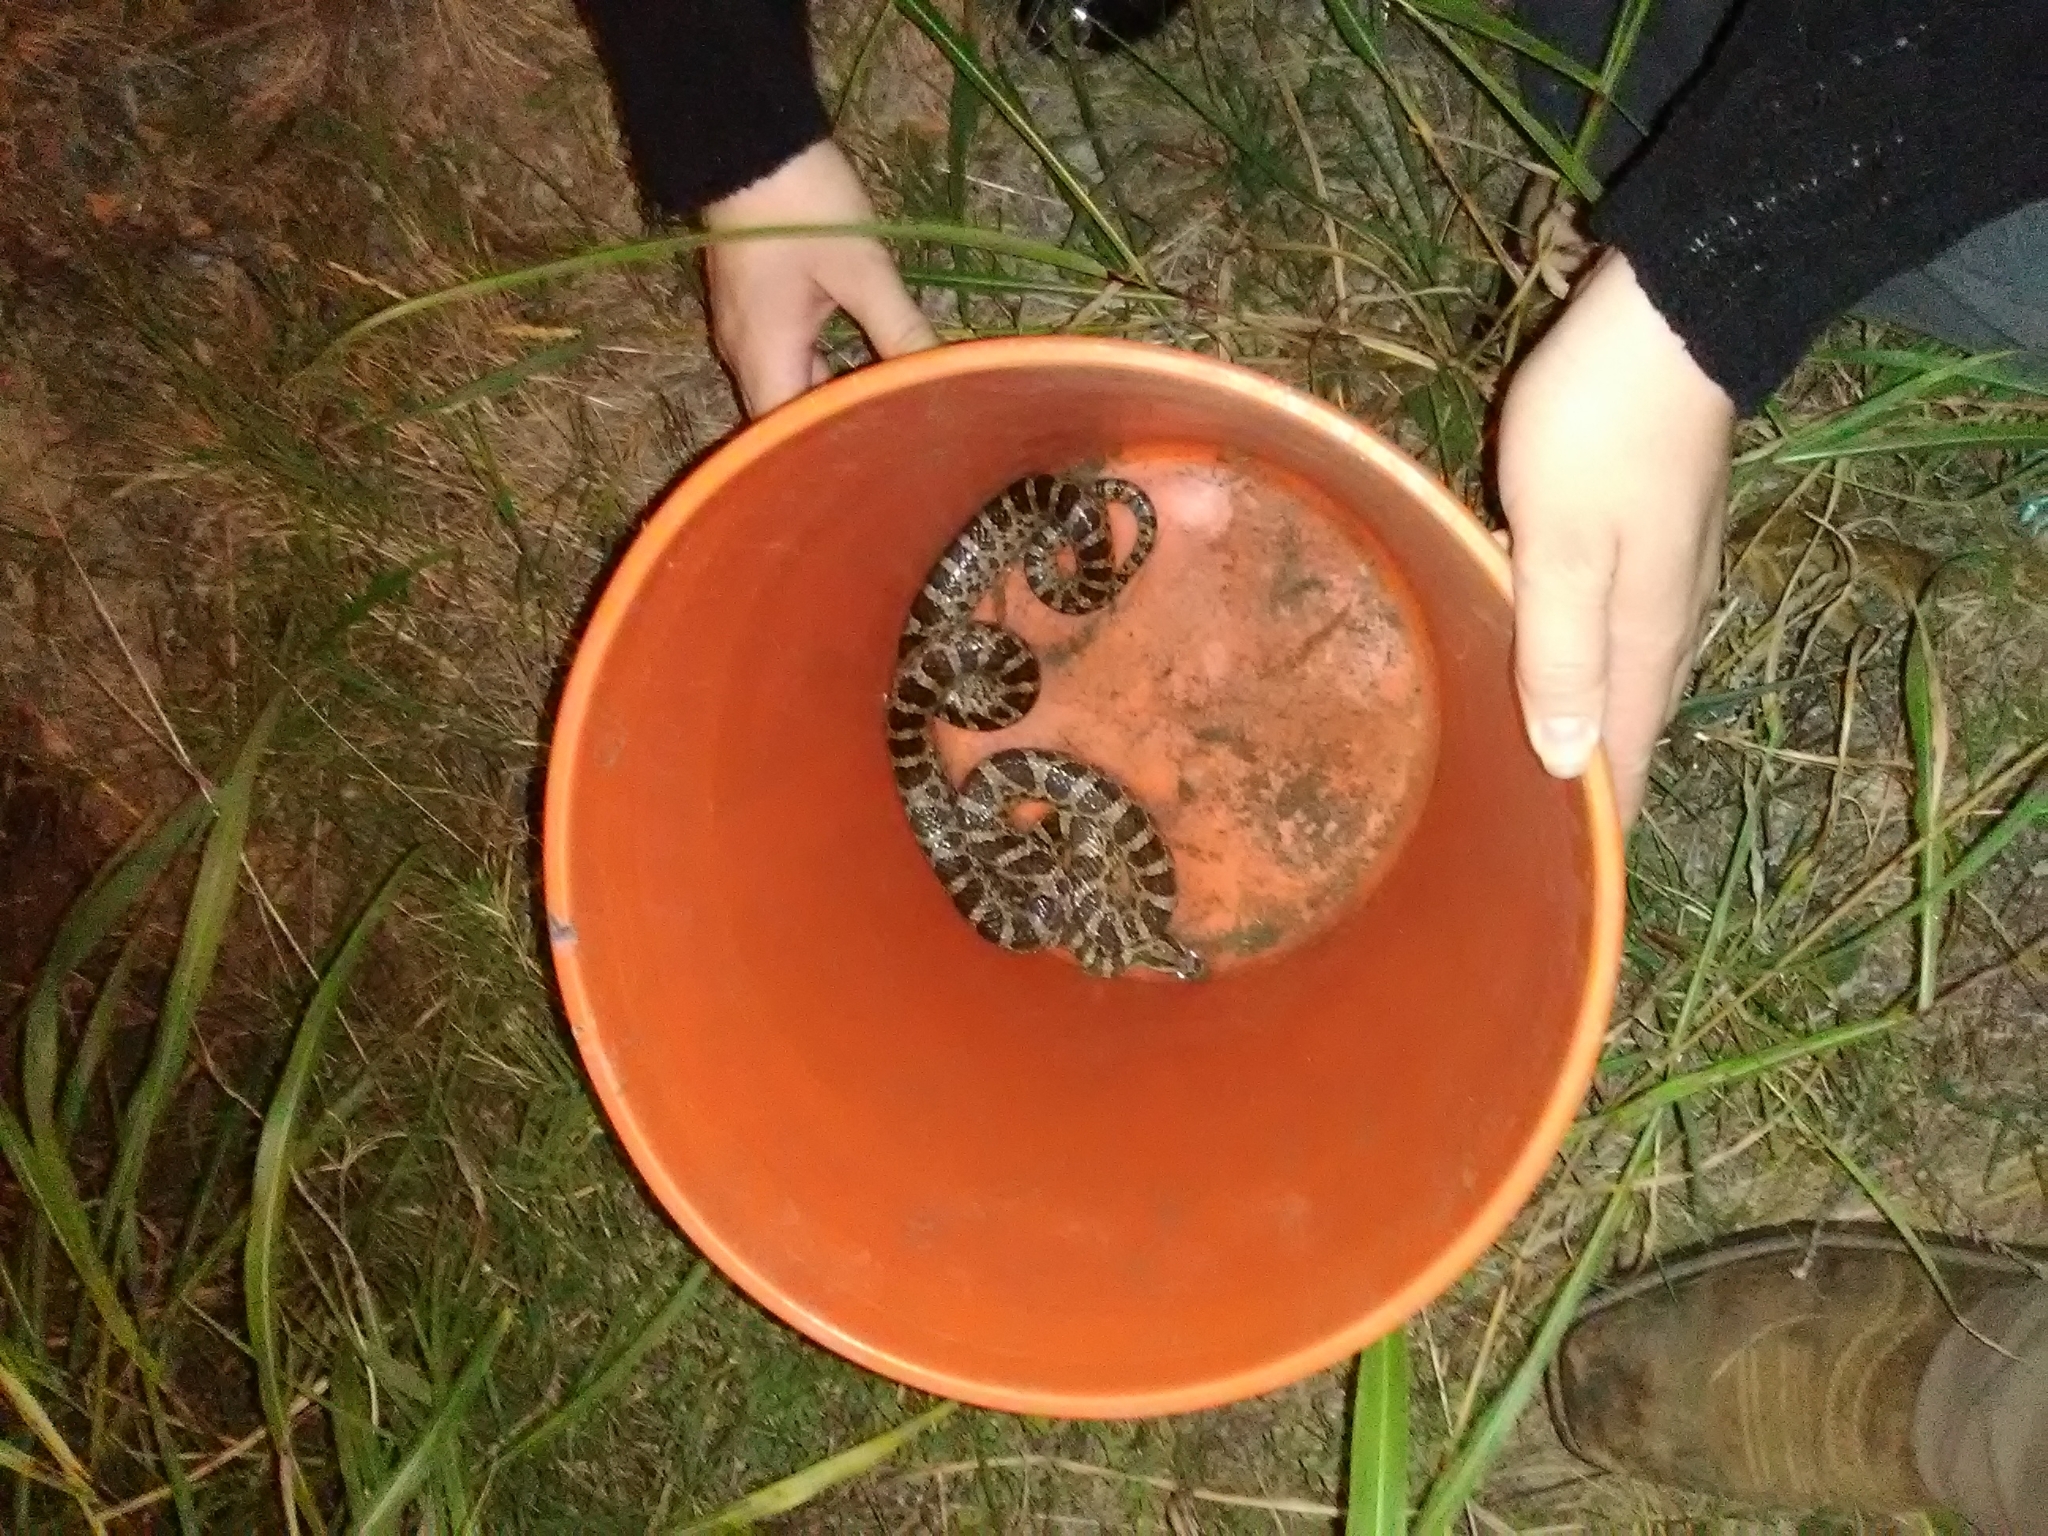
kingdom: Animalia
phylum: Chordata
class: Squamata
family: Colubridae
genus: Pantherophis
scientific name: Pantherophis emoryi
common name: Great plains rat snake
